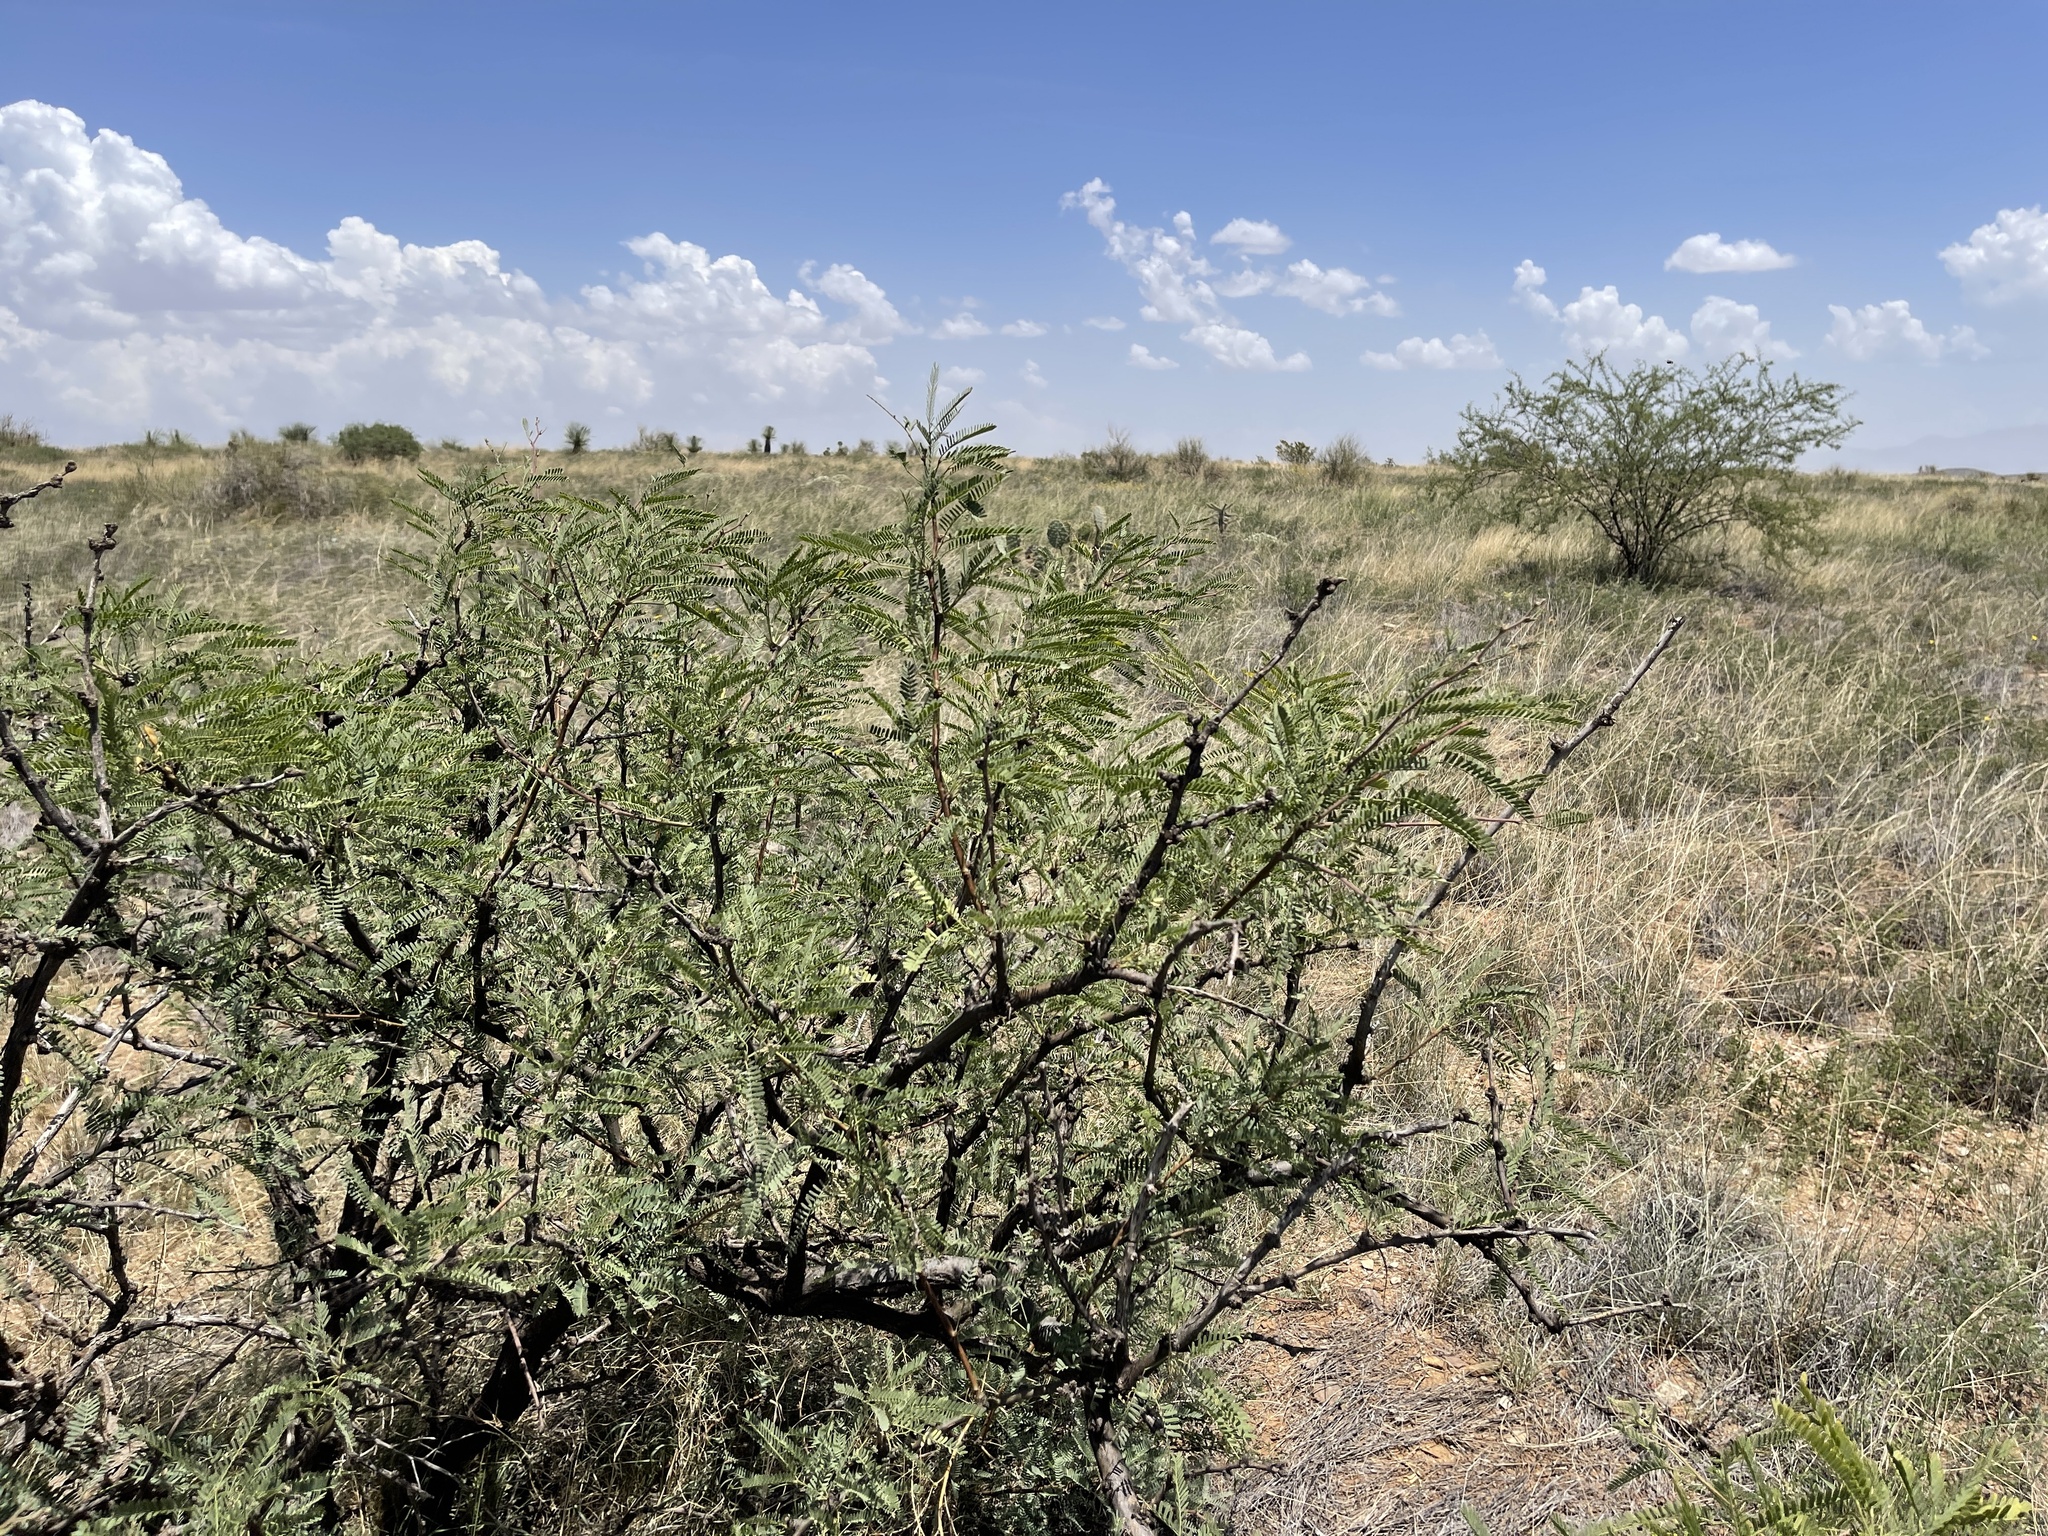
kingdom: Plantae
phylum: Tracheophyta
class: Magnoliopsida
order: Fabales
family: Fabaceae
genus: Prosopis
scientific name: Prosopis velutina
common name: Velvet mesquite
